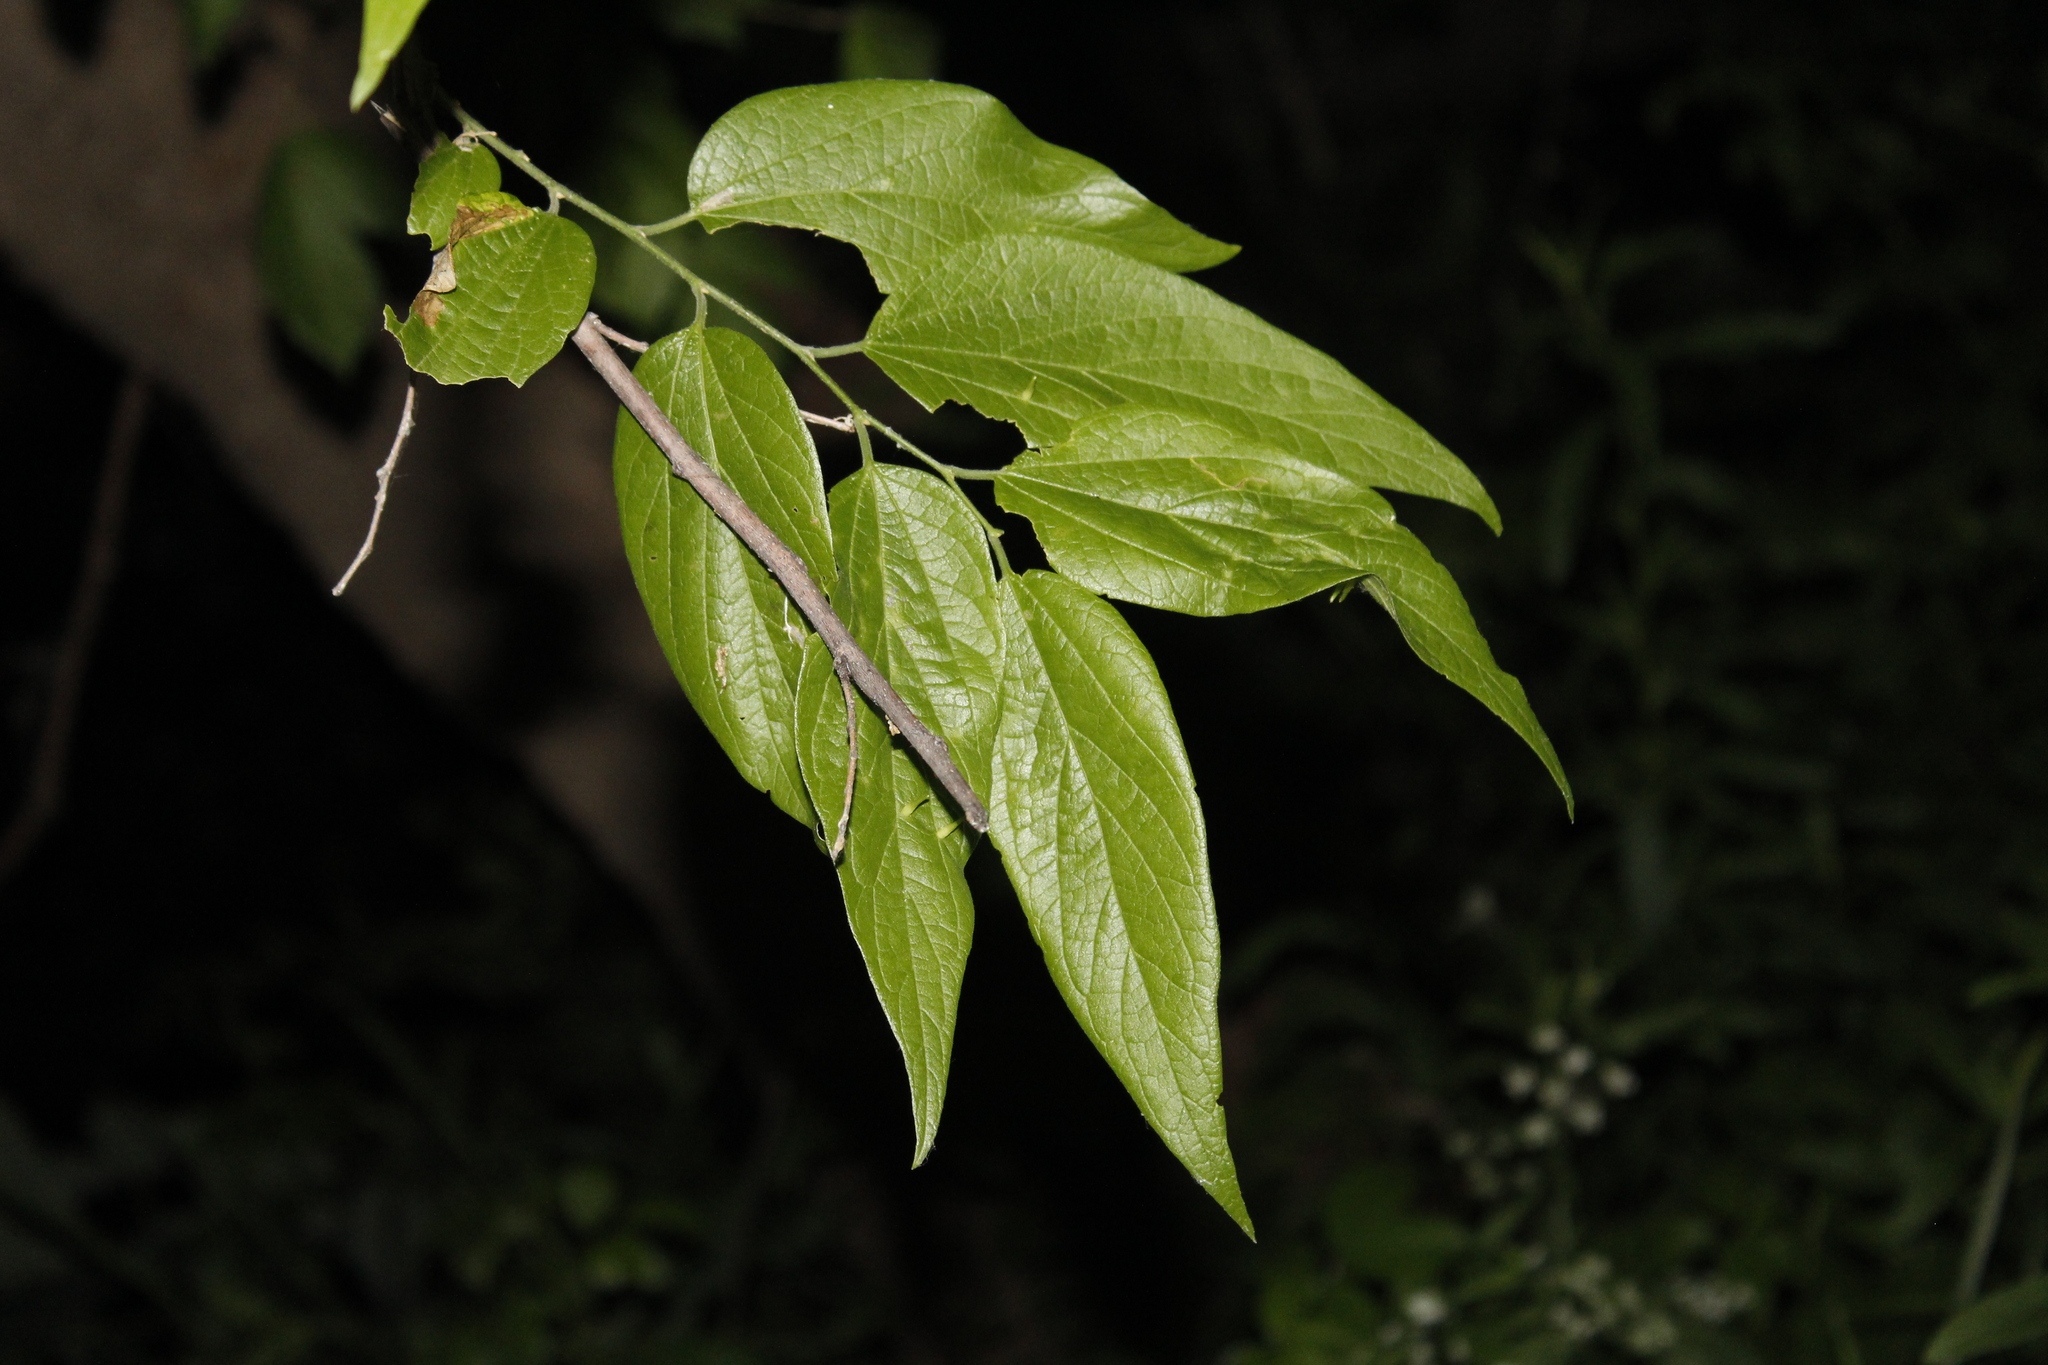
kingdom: Plantae
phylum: Tracheophyta
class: Magnoliopsida
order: Rosales
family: Cannabaceae
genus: Celtis
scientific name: Celtis laevigata
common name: Sugarberry
